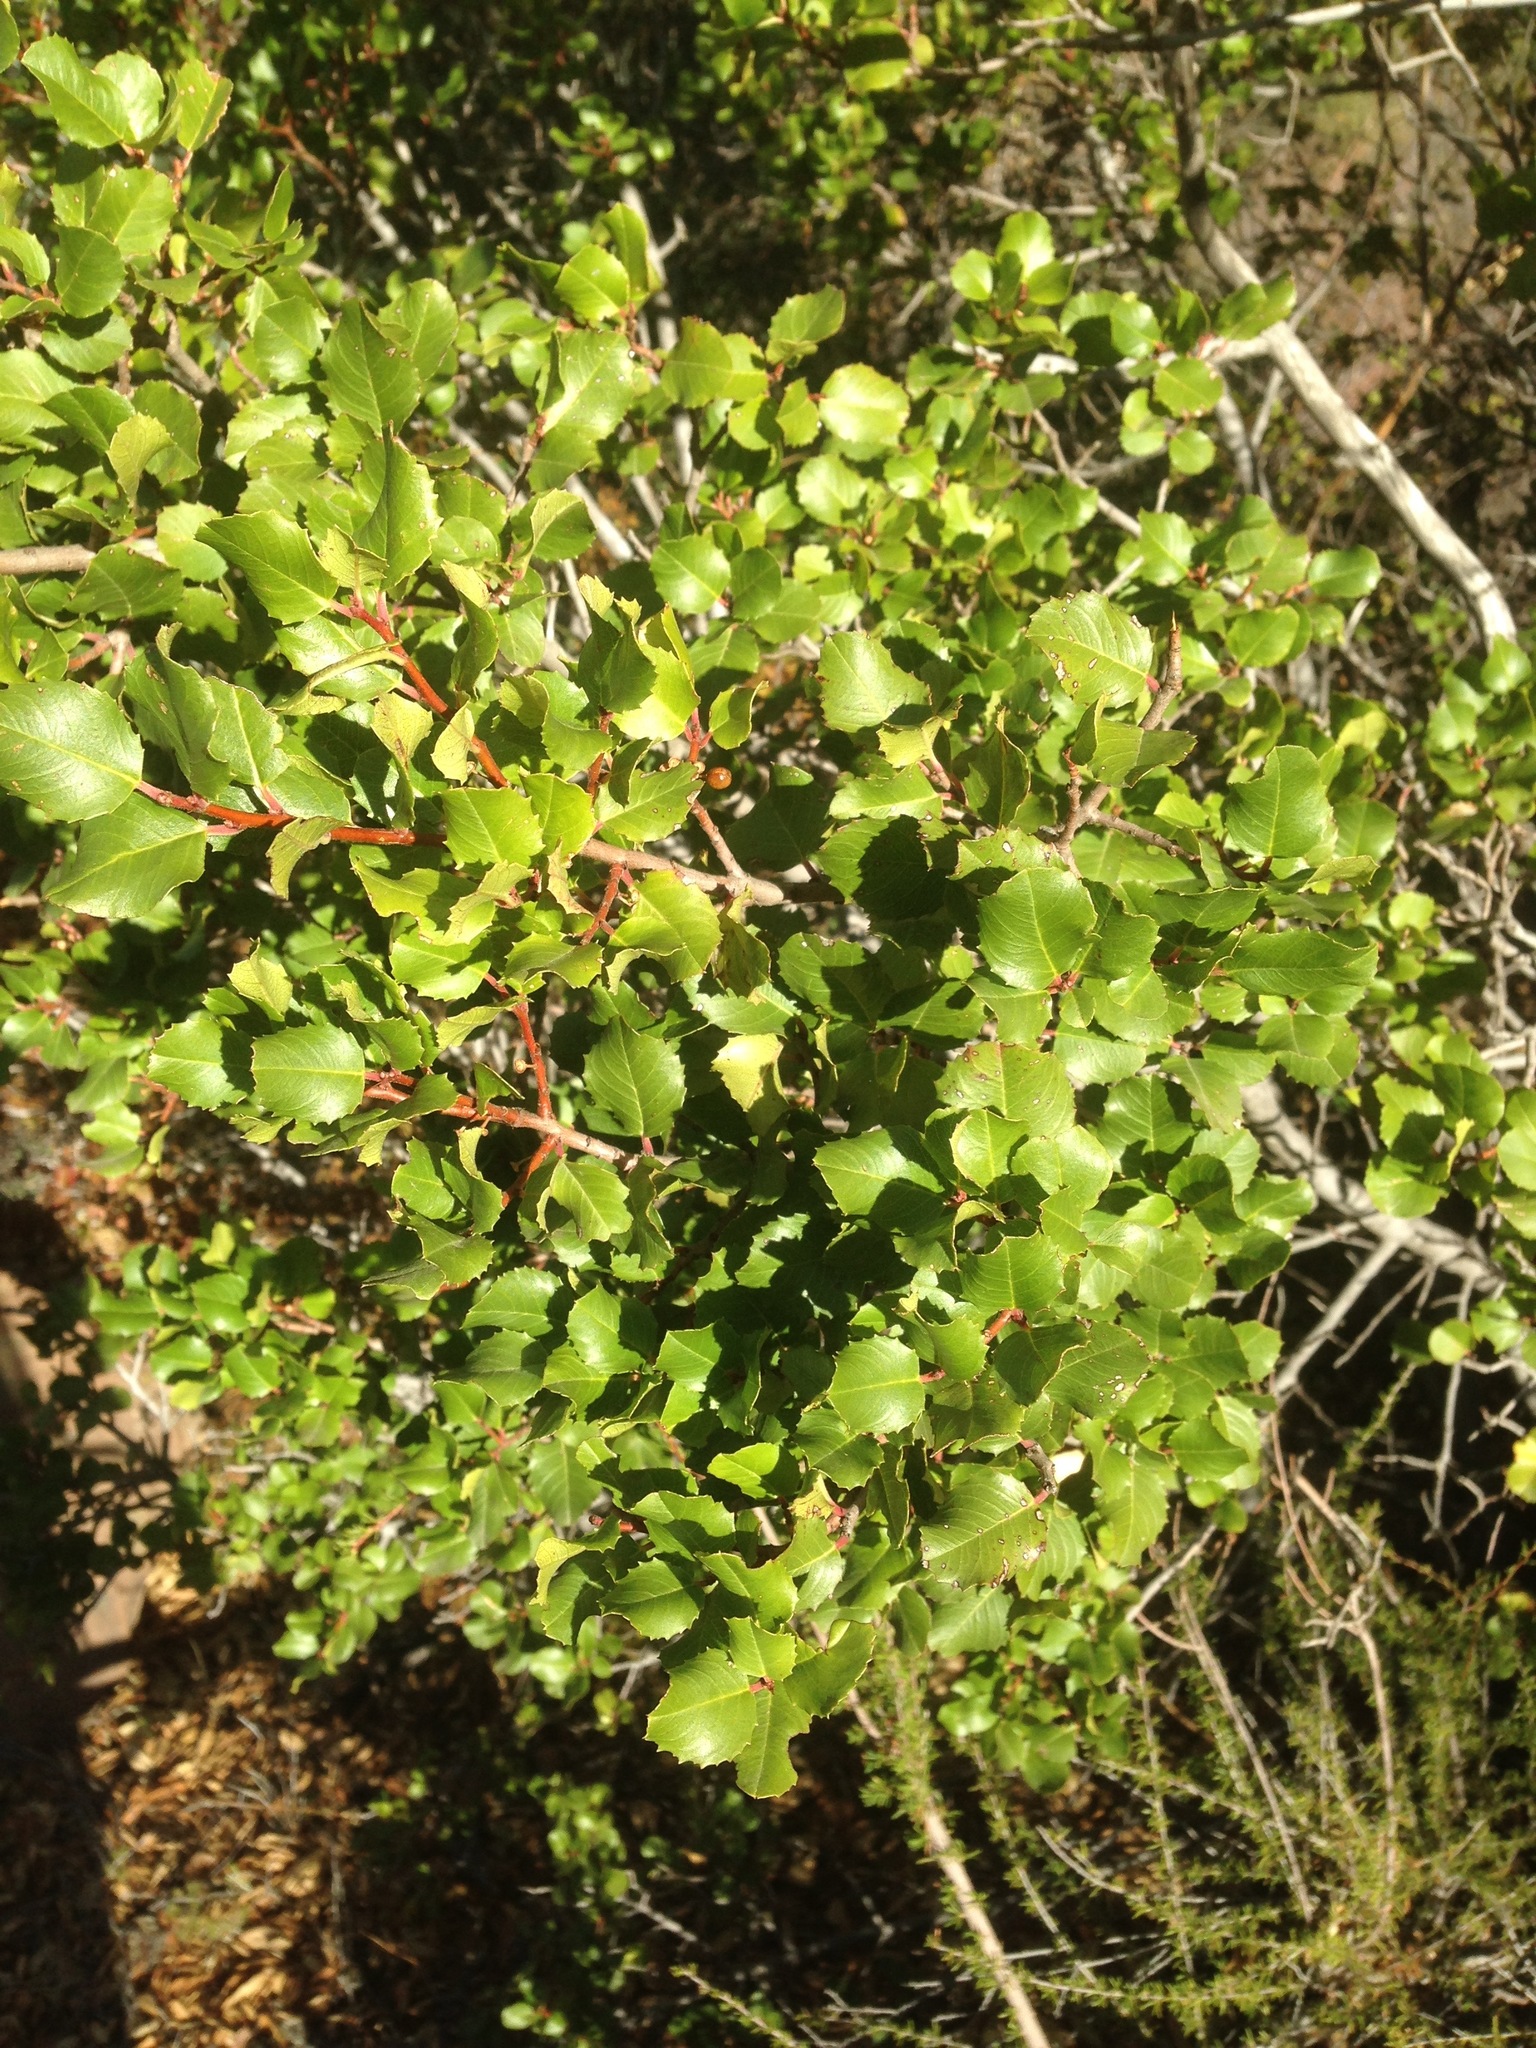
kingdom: Plantae
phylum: Tracheophyta
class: Magnoliopsida
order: Rosales
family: Rhamnaceae
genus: Endotropis
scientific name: Endotropis crocea
